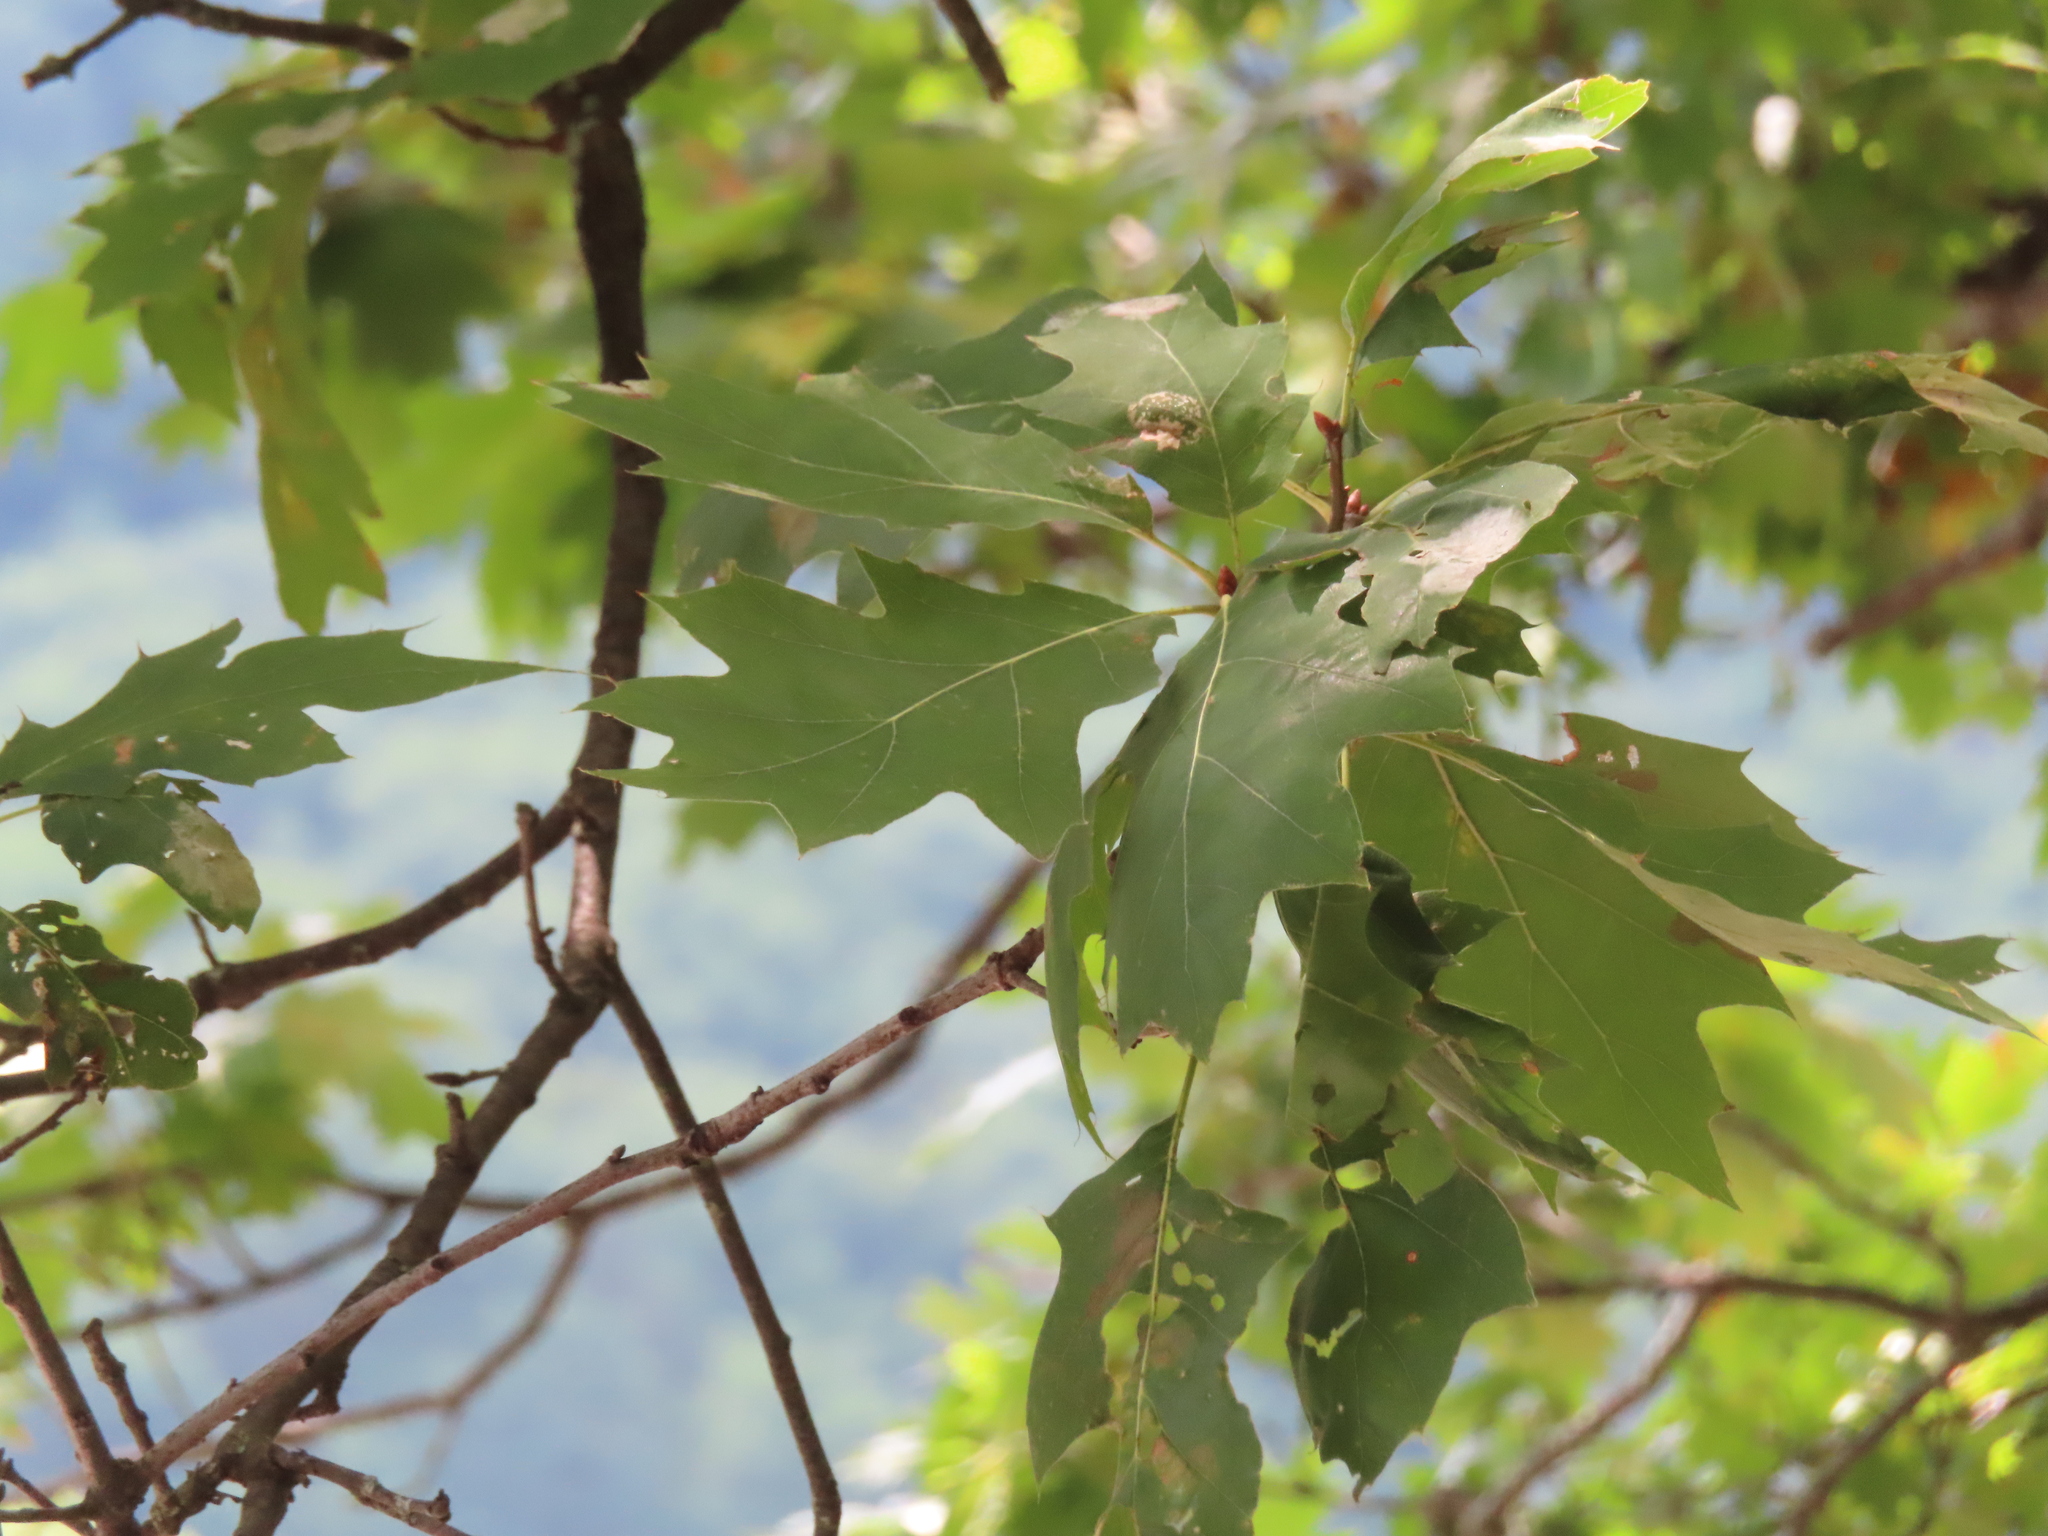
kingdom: Plantae
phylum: Tracheophyta
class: Magnoliopsida
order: Fagales
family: Fagaceae
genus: Quercus
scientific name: Quercus rubra
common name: Red oak
